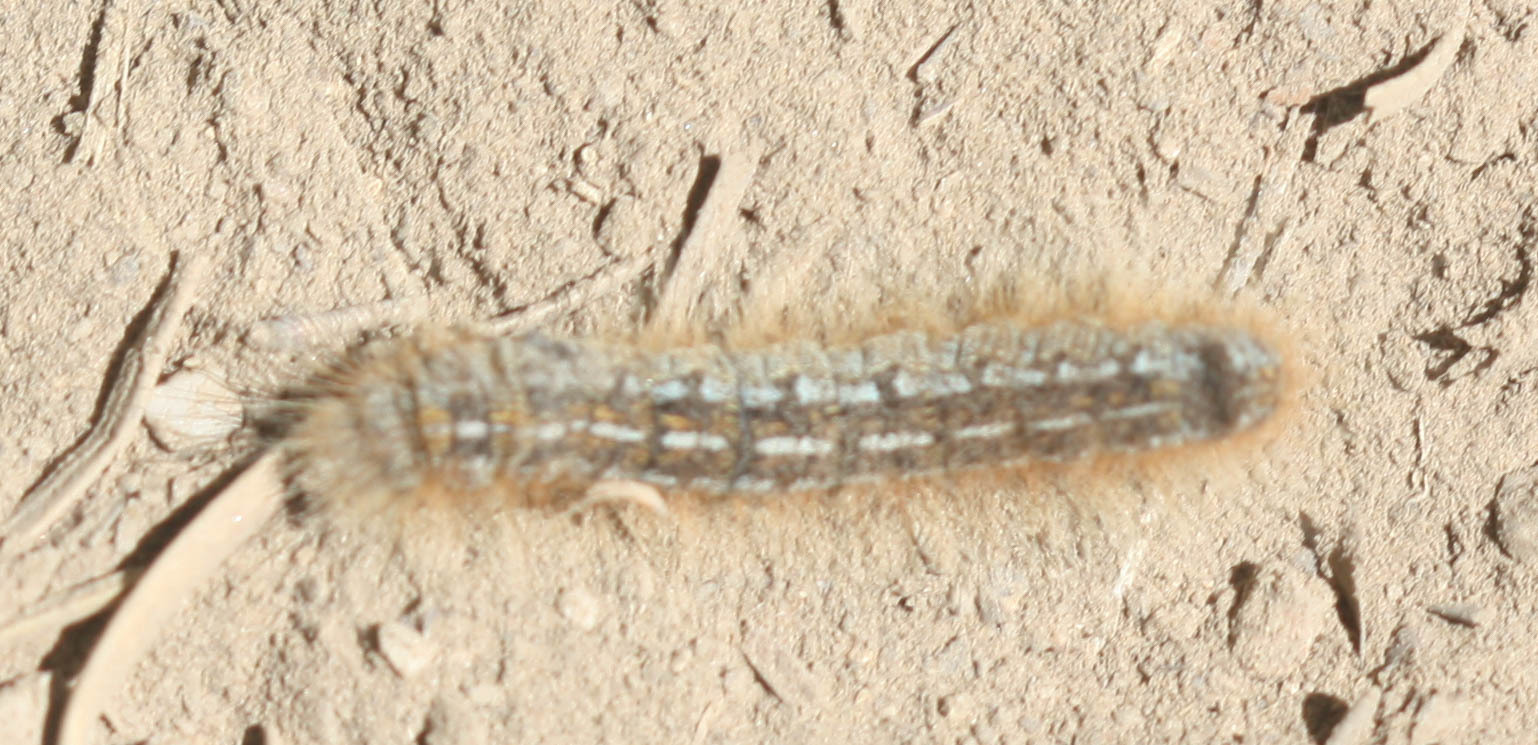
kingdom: Animalia
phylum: Arthropoda
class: Insecta
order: Lepidoptera
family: Lasiocampidae
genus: Malacosoma
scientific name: Malacosoma californica
